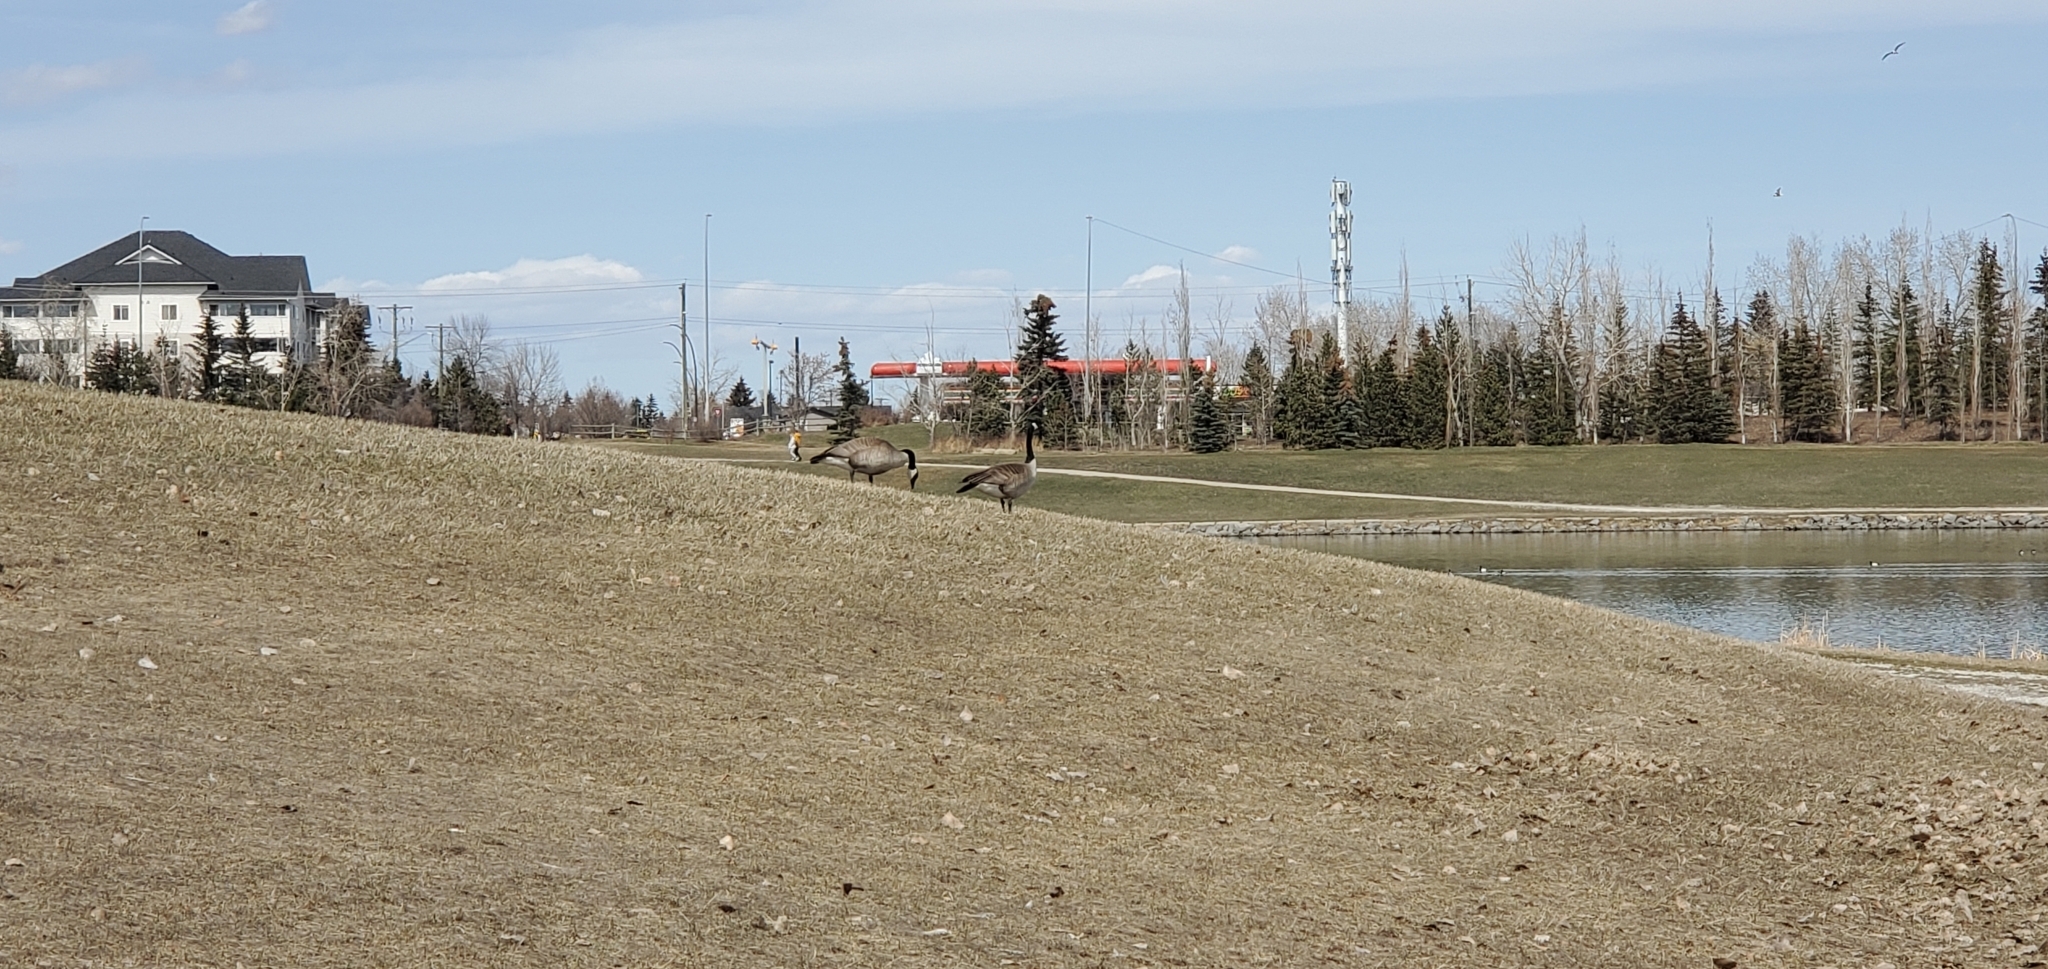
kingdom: Animalia
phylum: Chordata
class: Aves
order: Anseriformes
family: Anatidae
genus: Branta
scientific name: Branta canadensis
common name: Canada goose
